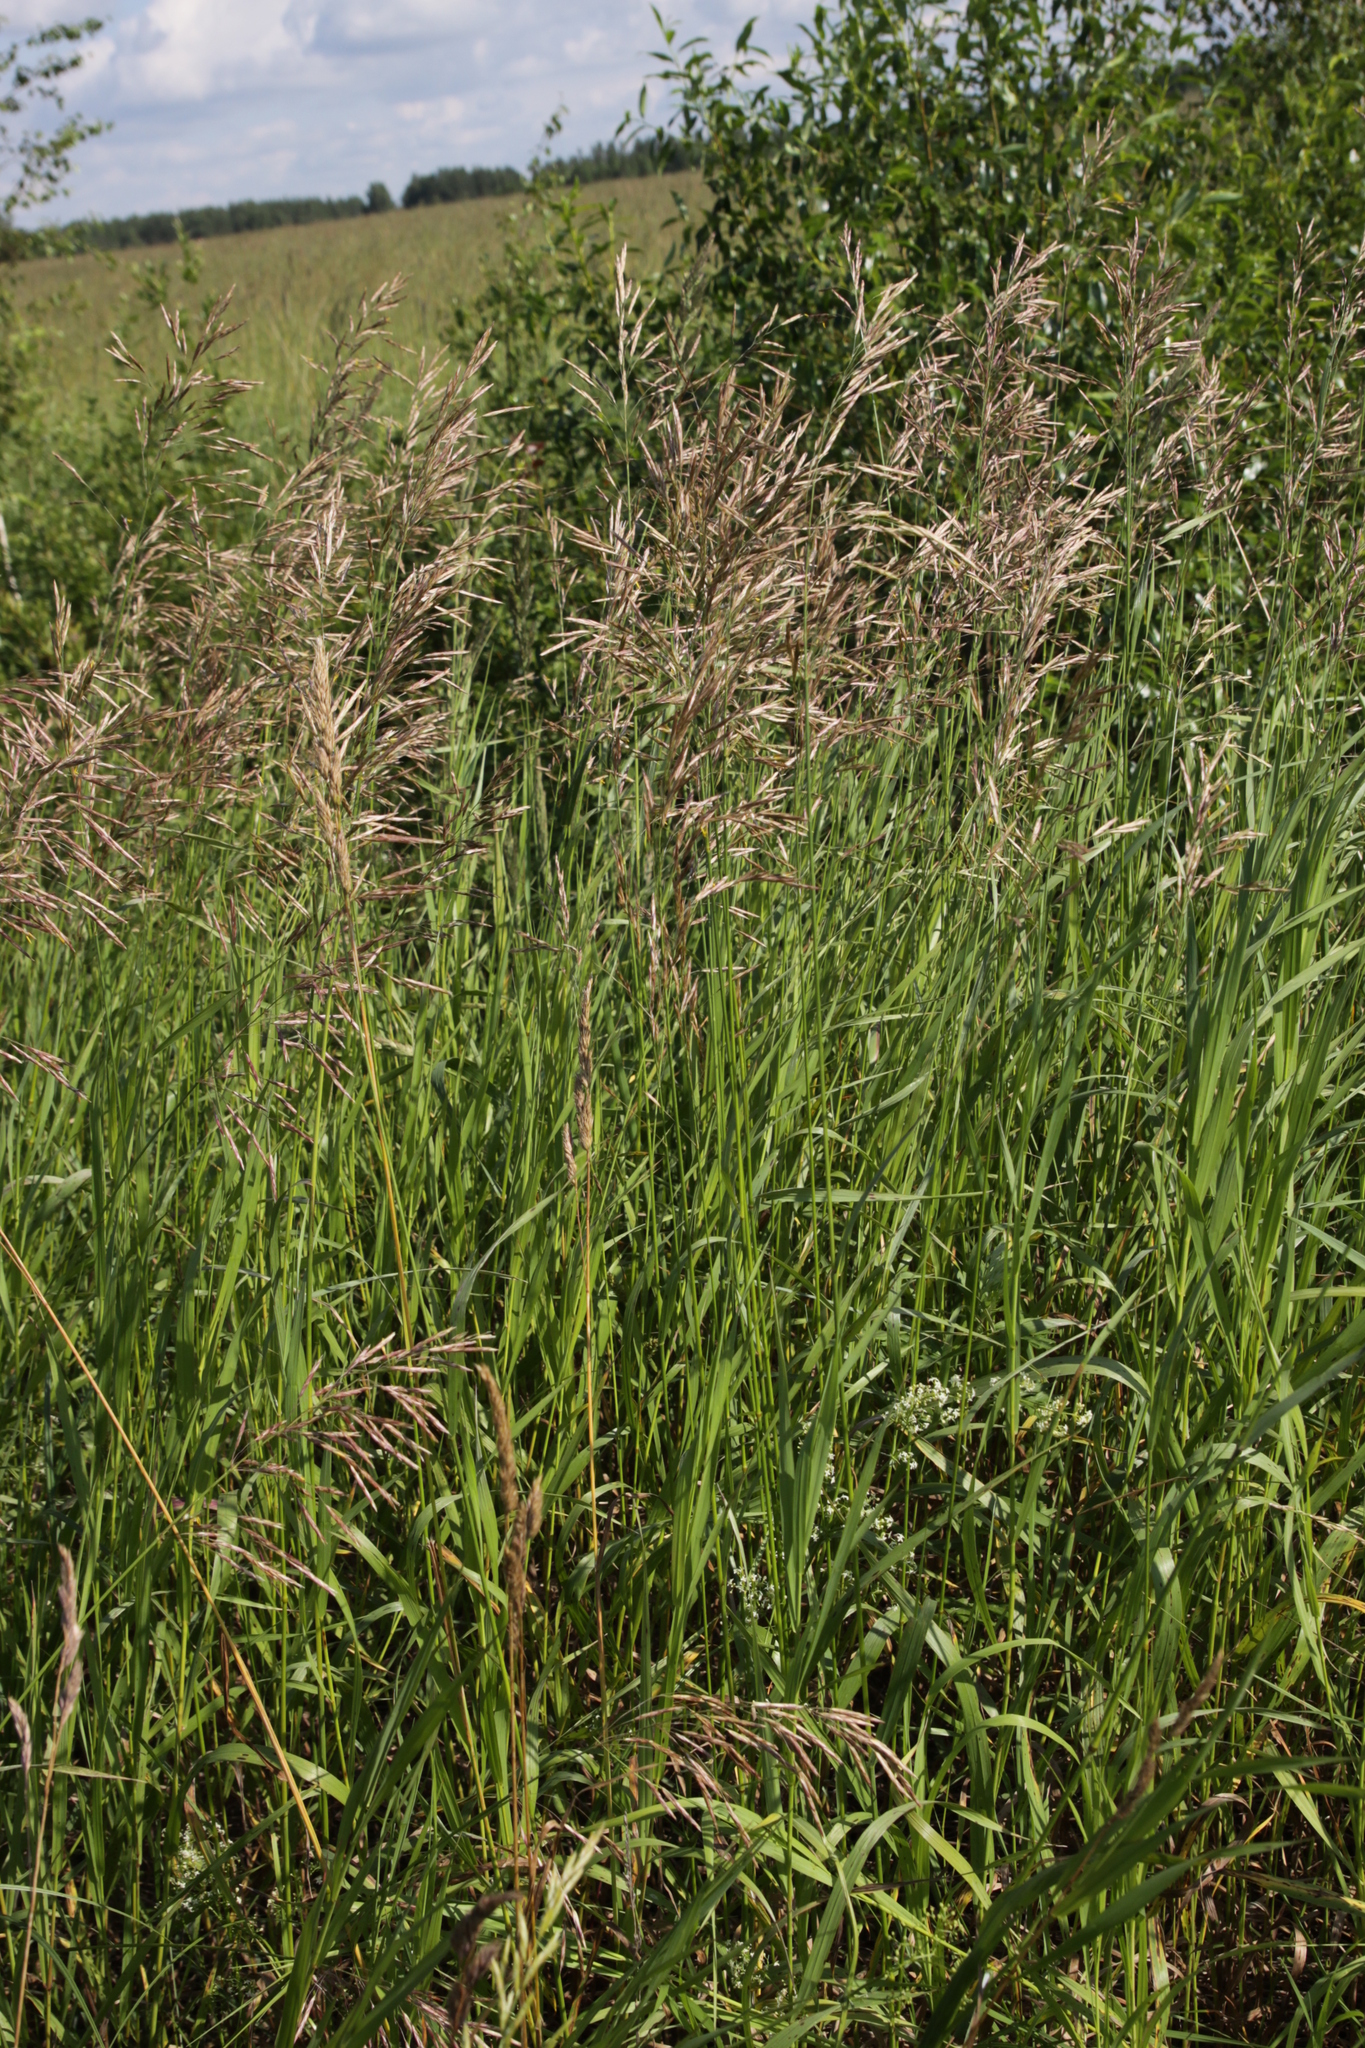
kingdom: Plantae
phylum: Tracheophyta
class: Liliopsida
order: Poales
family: Poaceae
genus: Bromus
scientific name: Bromus inermis
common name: Smooth brome
